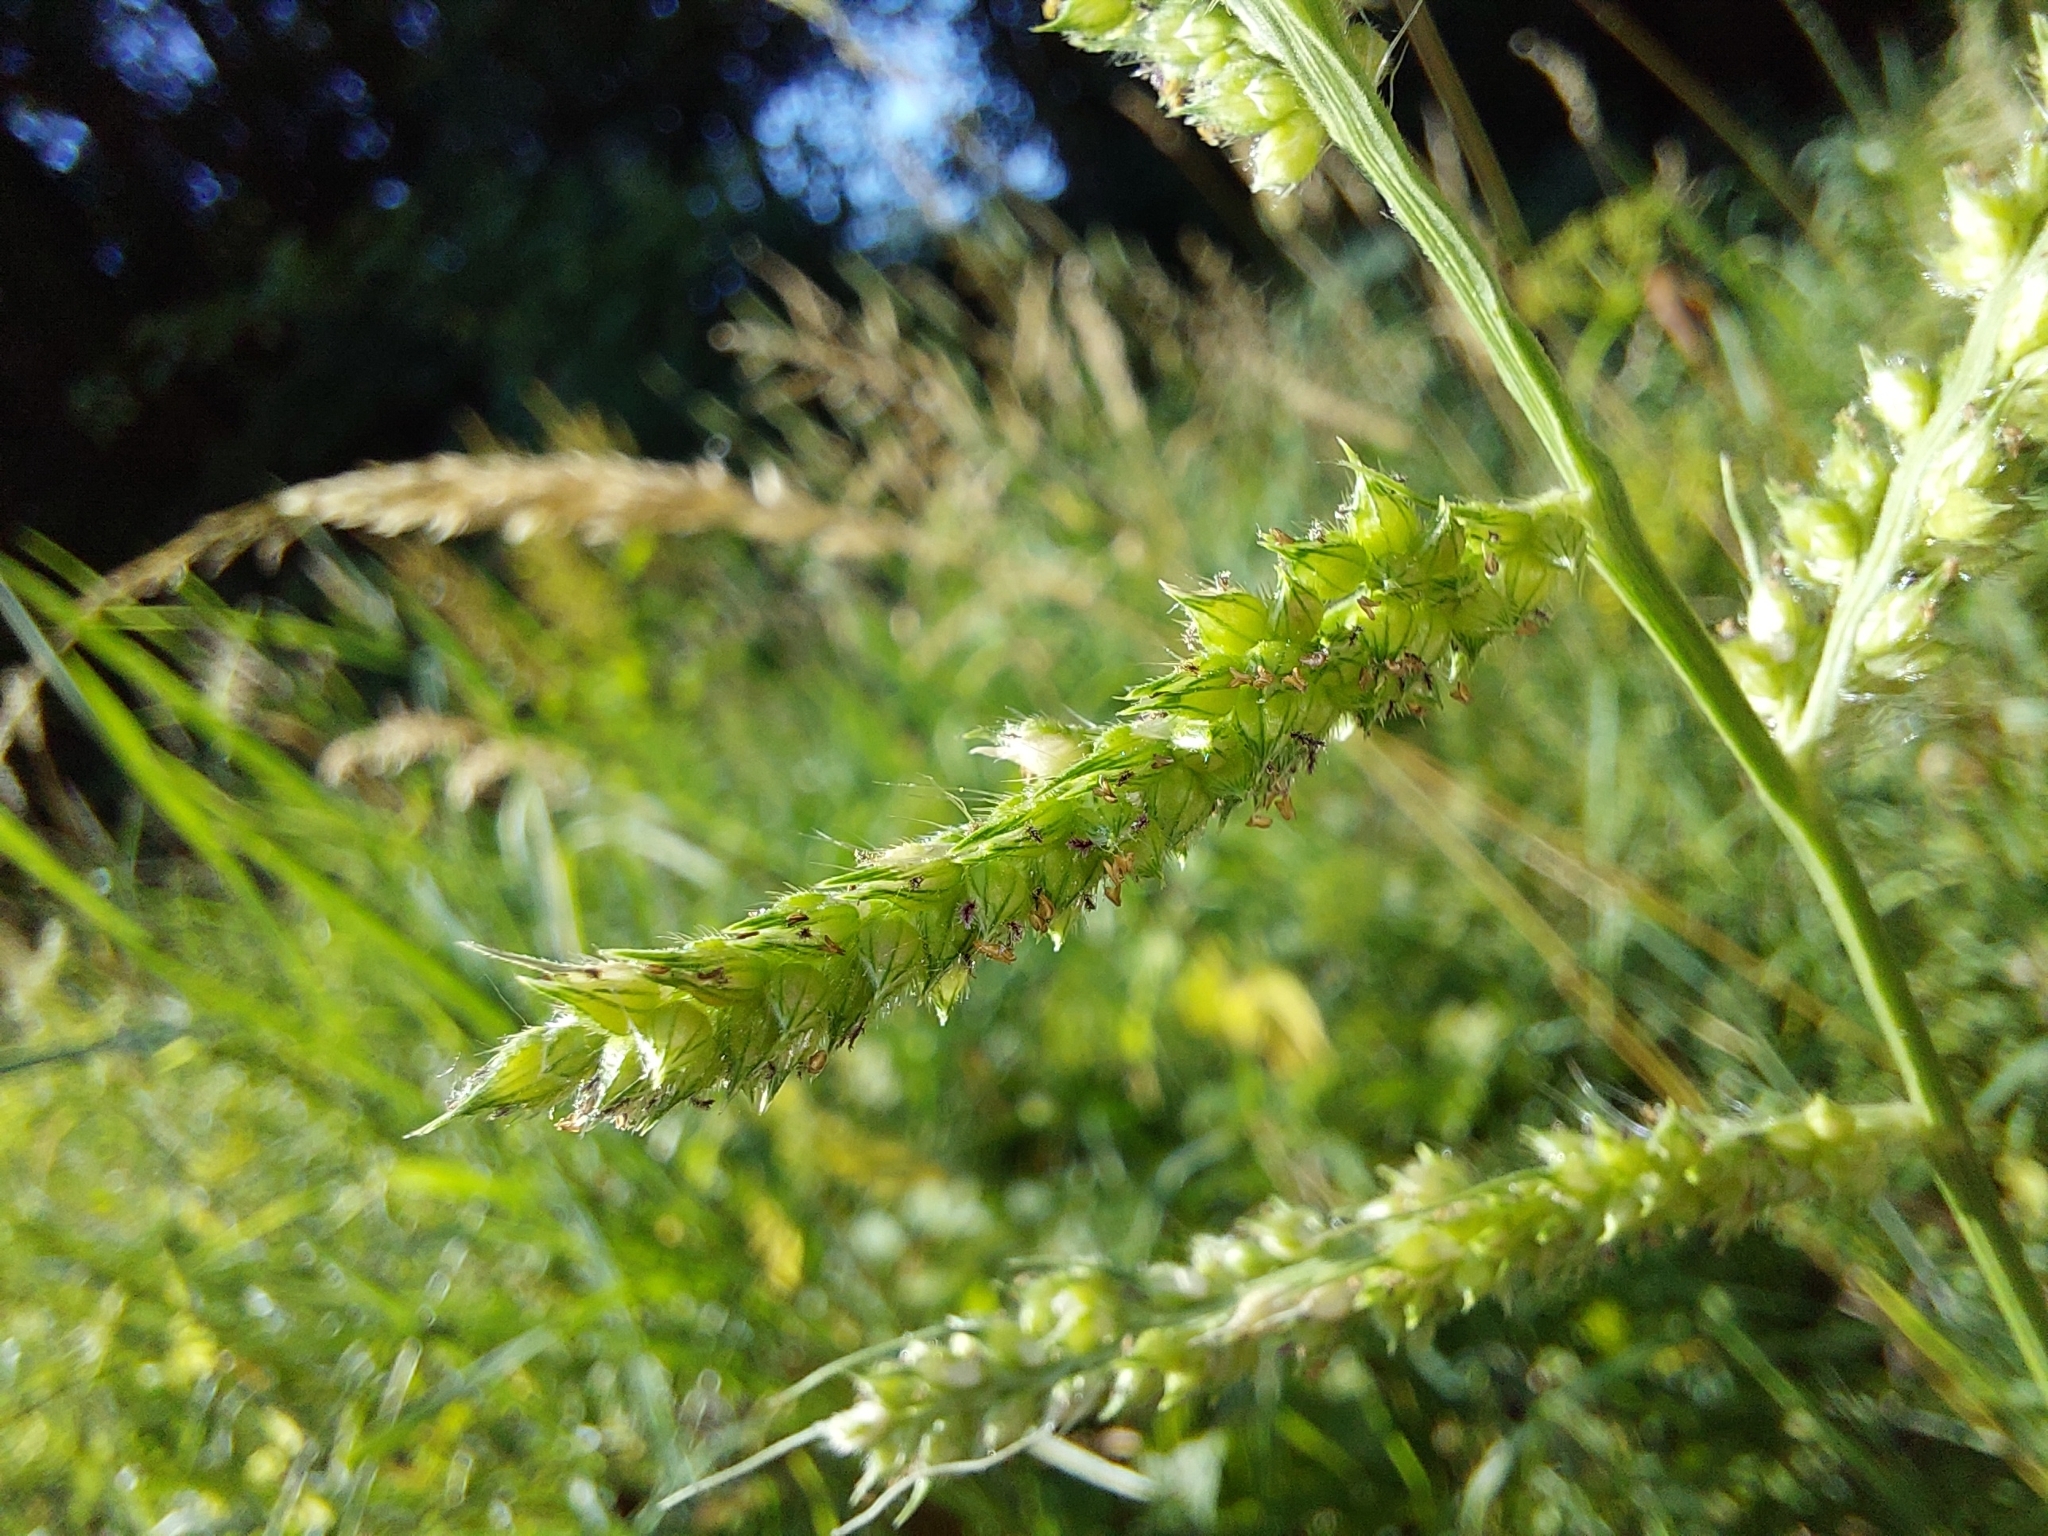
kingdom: Plantae
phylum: Tracheophyta
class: Liliopsida
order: Poales
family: Poaceae
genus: Echinochloa
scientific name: Echinochloa crus-galli
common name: Cockspur
